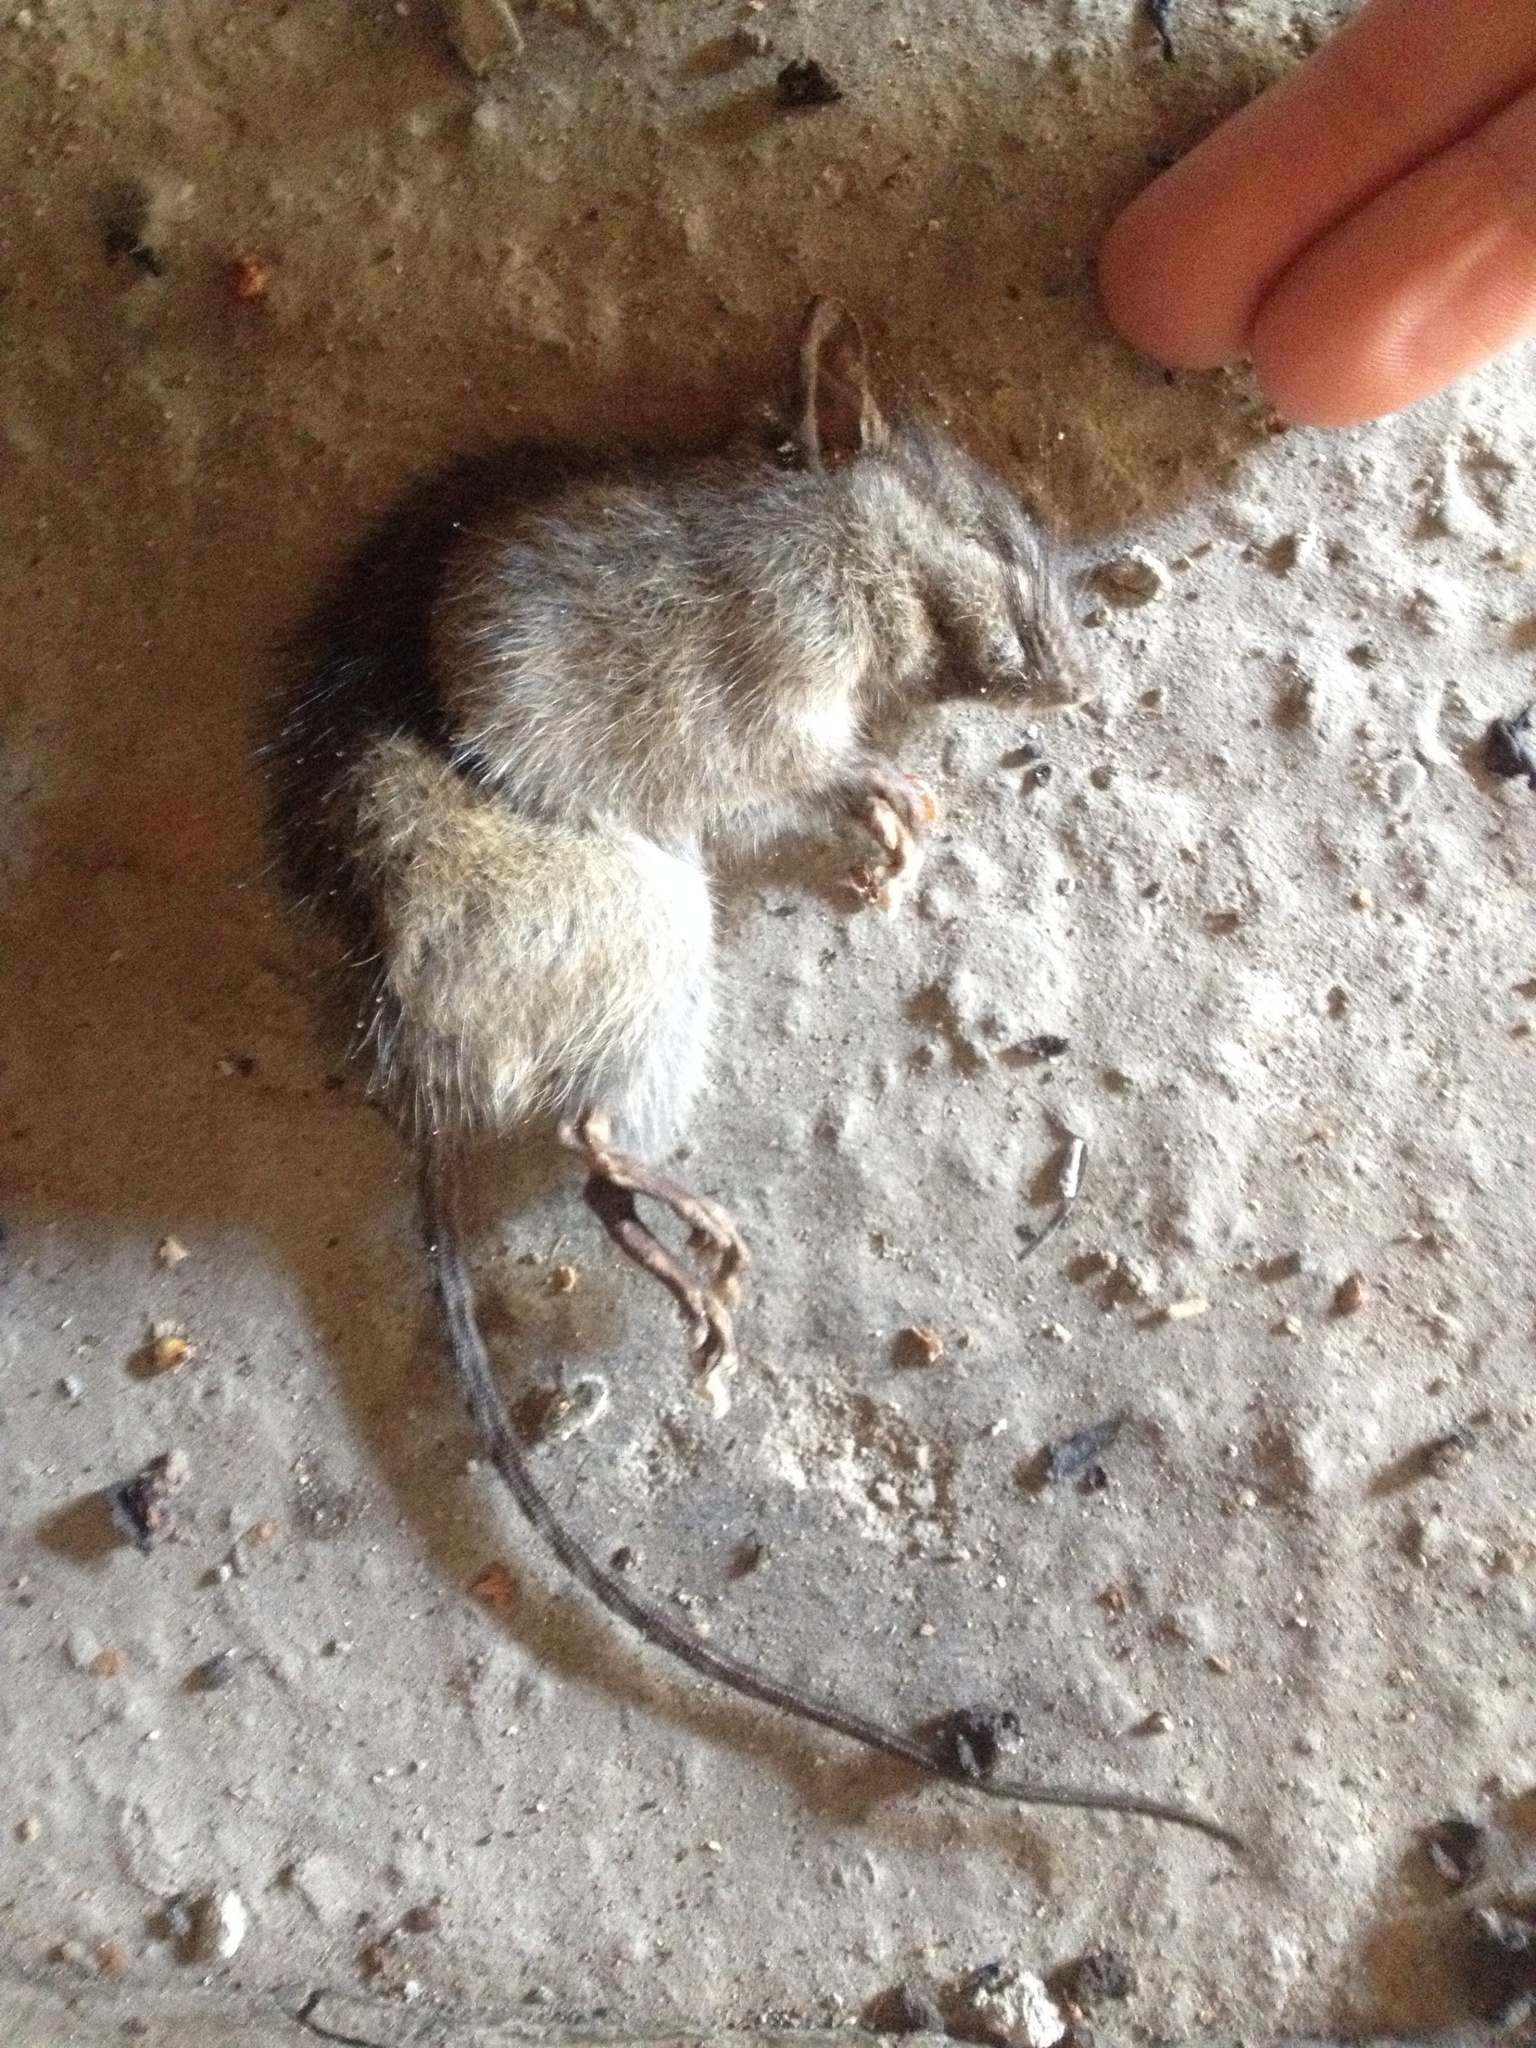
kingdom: Animalia
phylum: Chordata
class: Mammalia
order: Rodentia
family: Muridae
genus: Rattus
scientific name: Rattus rattus
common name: Black rat
